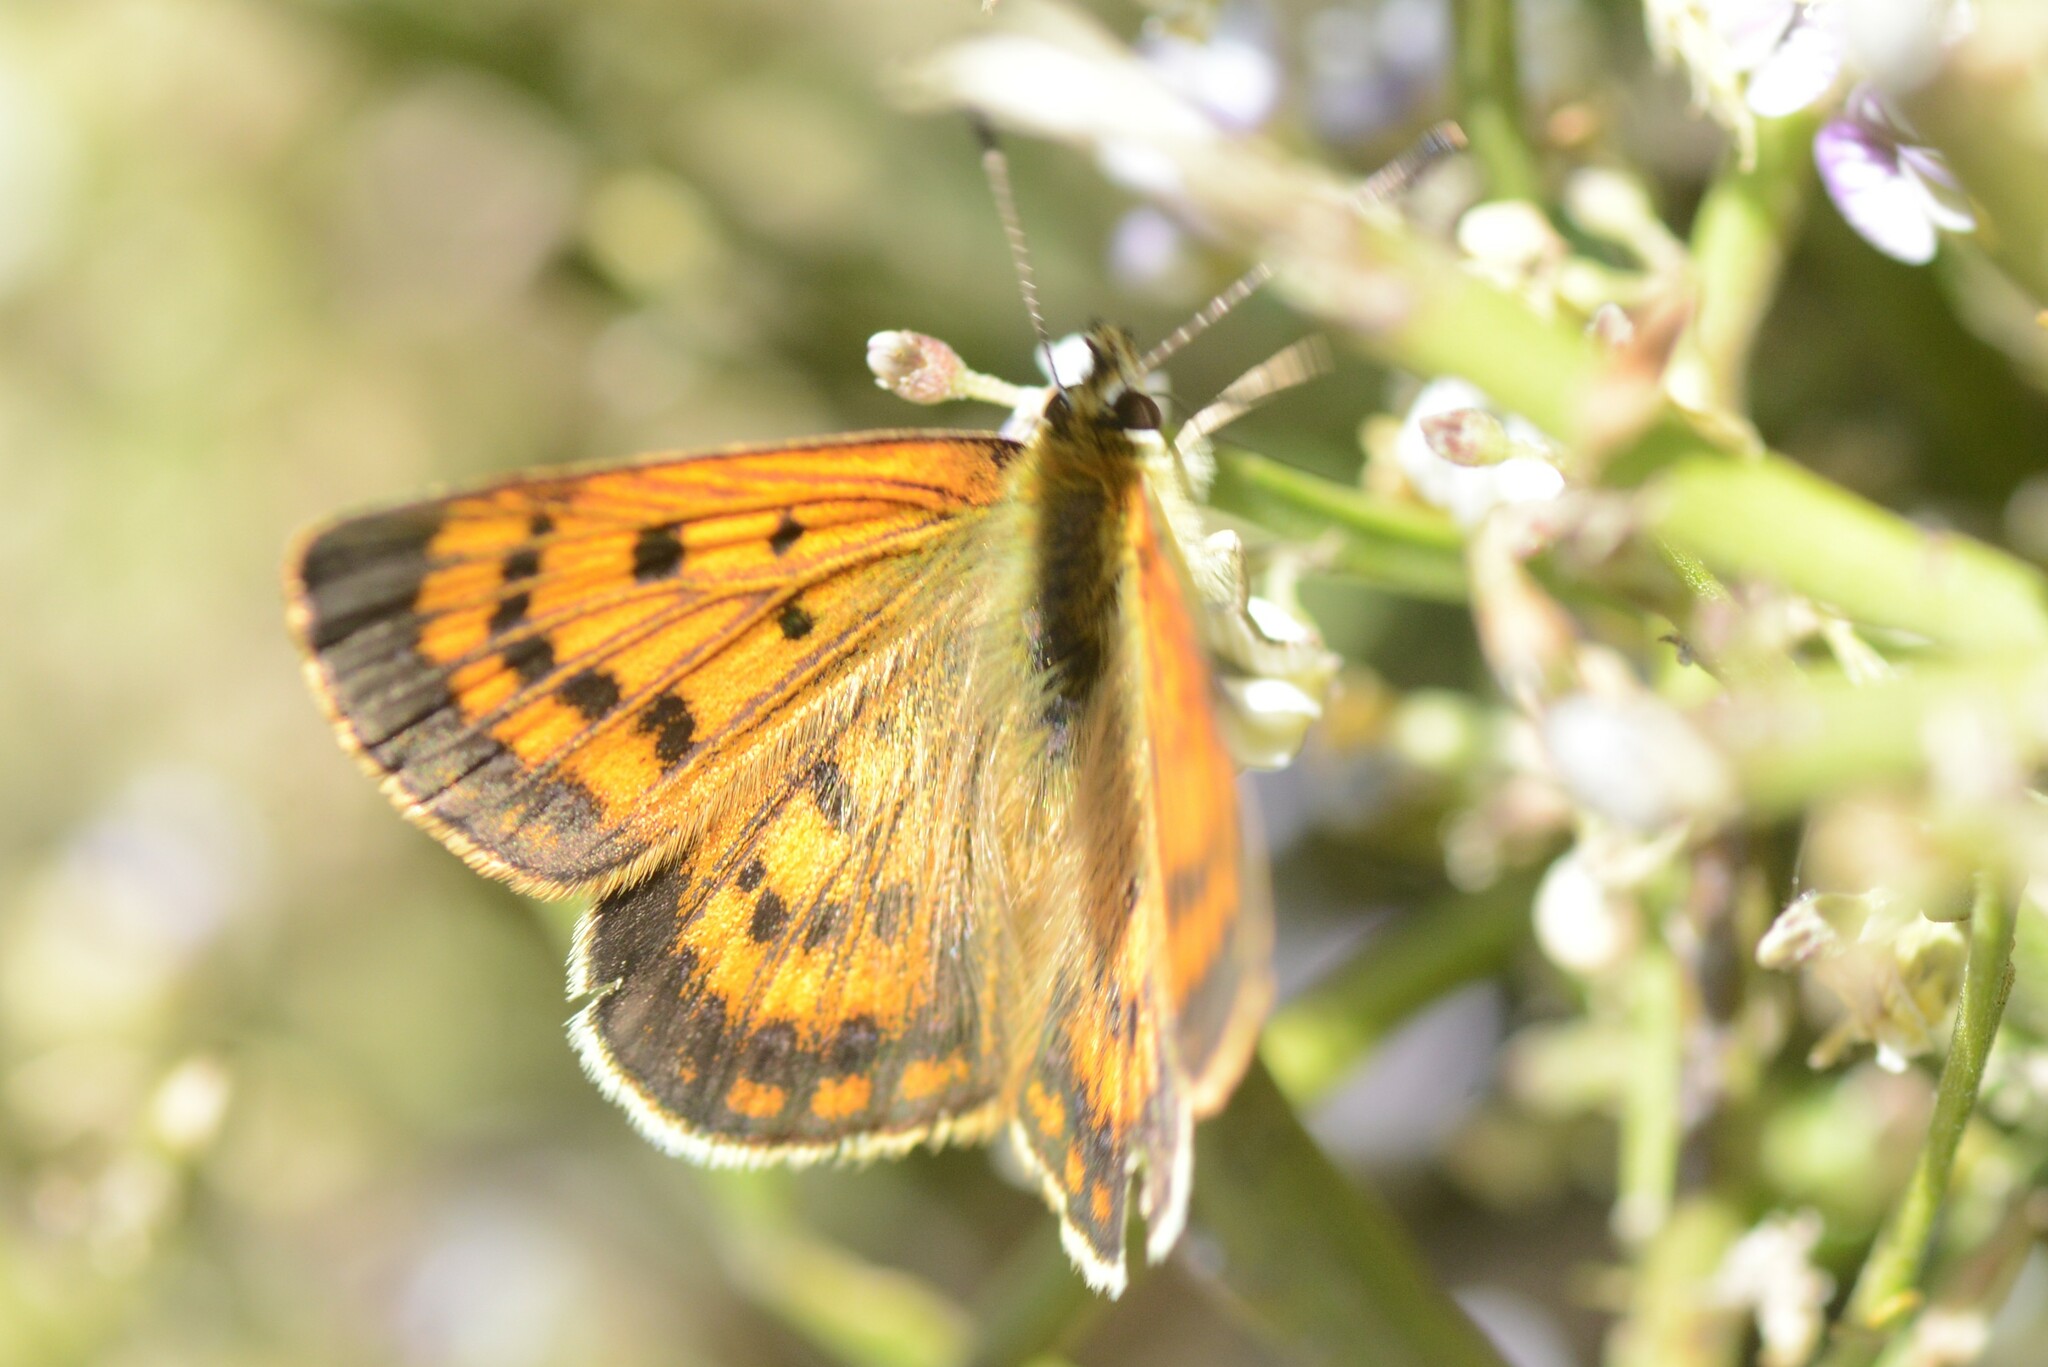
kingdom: Animalia
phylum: Arthropoda
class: Insecta
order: Lepidoptera
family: Lycaenidae
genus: Lycaena
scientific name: Lycaena
